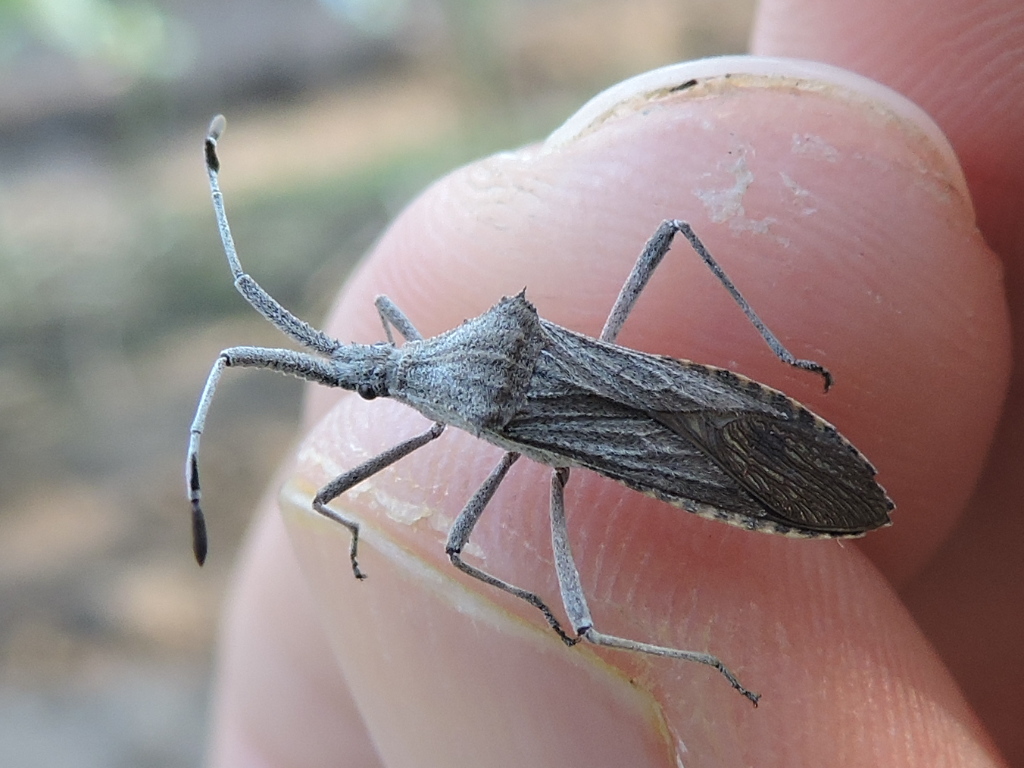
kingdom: Animalia
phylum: Arthropoda
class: Insecta
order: Hemiptera
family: Coreidae
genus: Chariesterus
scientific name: Chariesterus antennator
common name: Flat horned coreid
